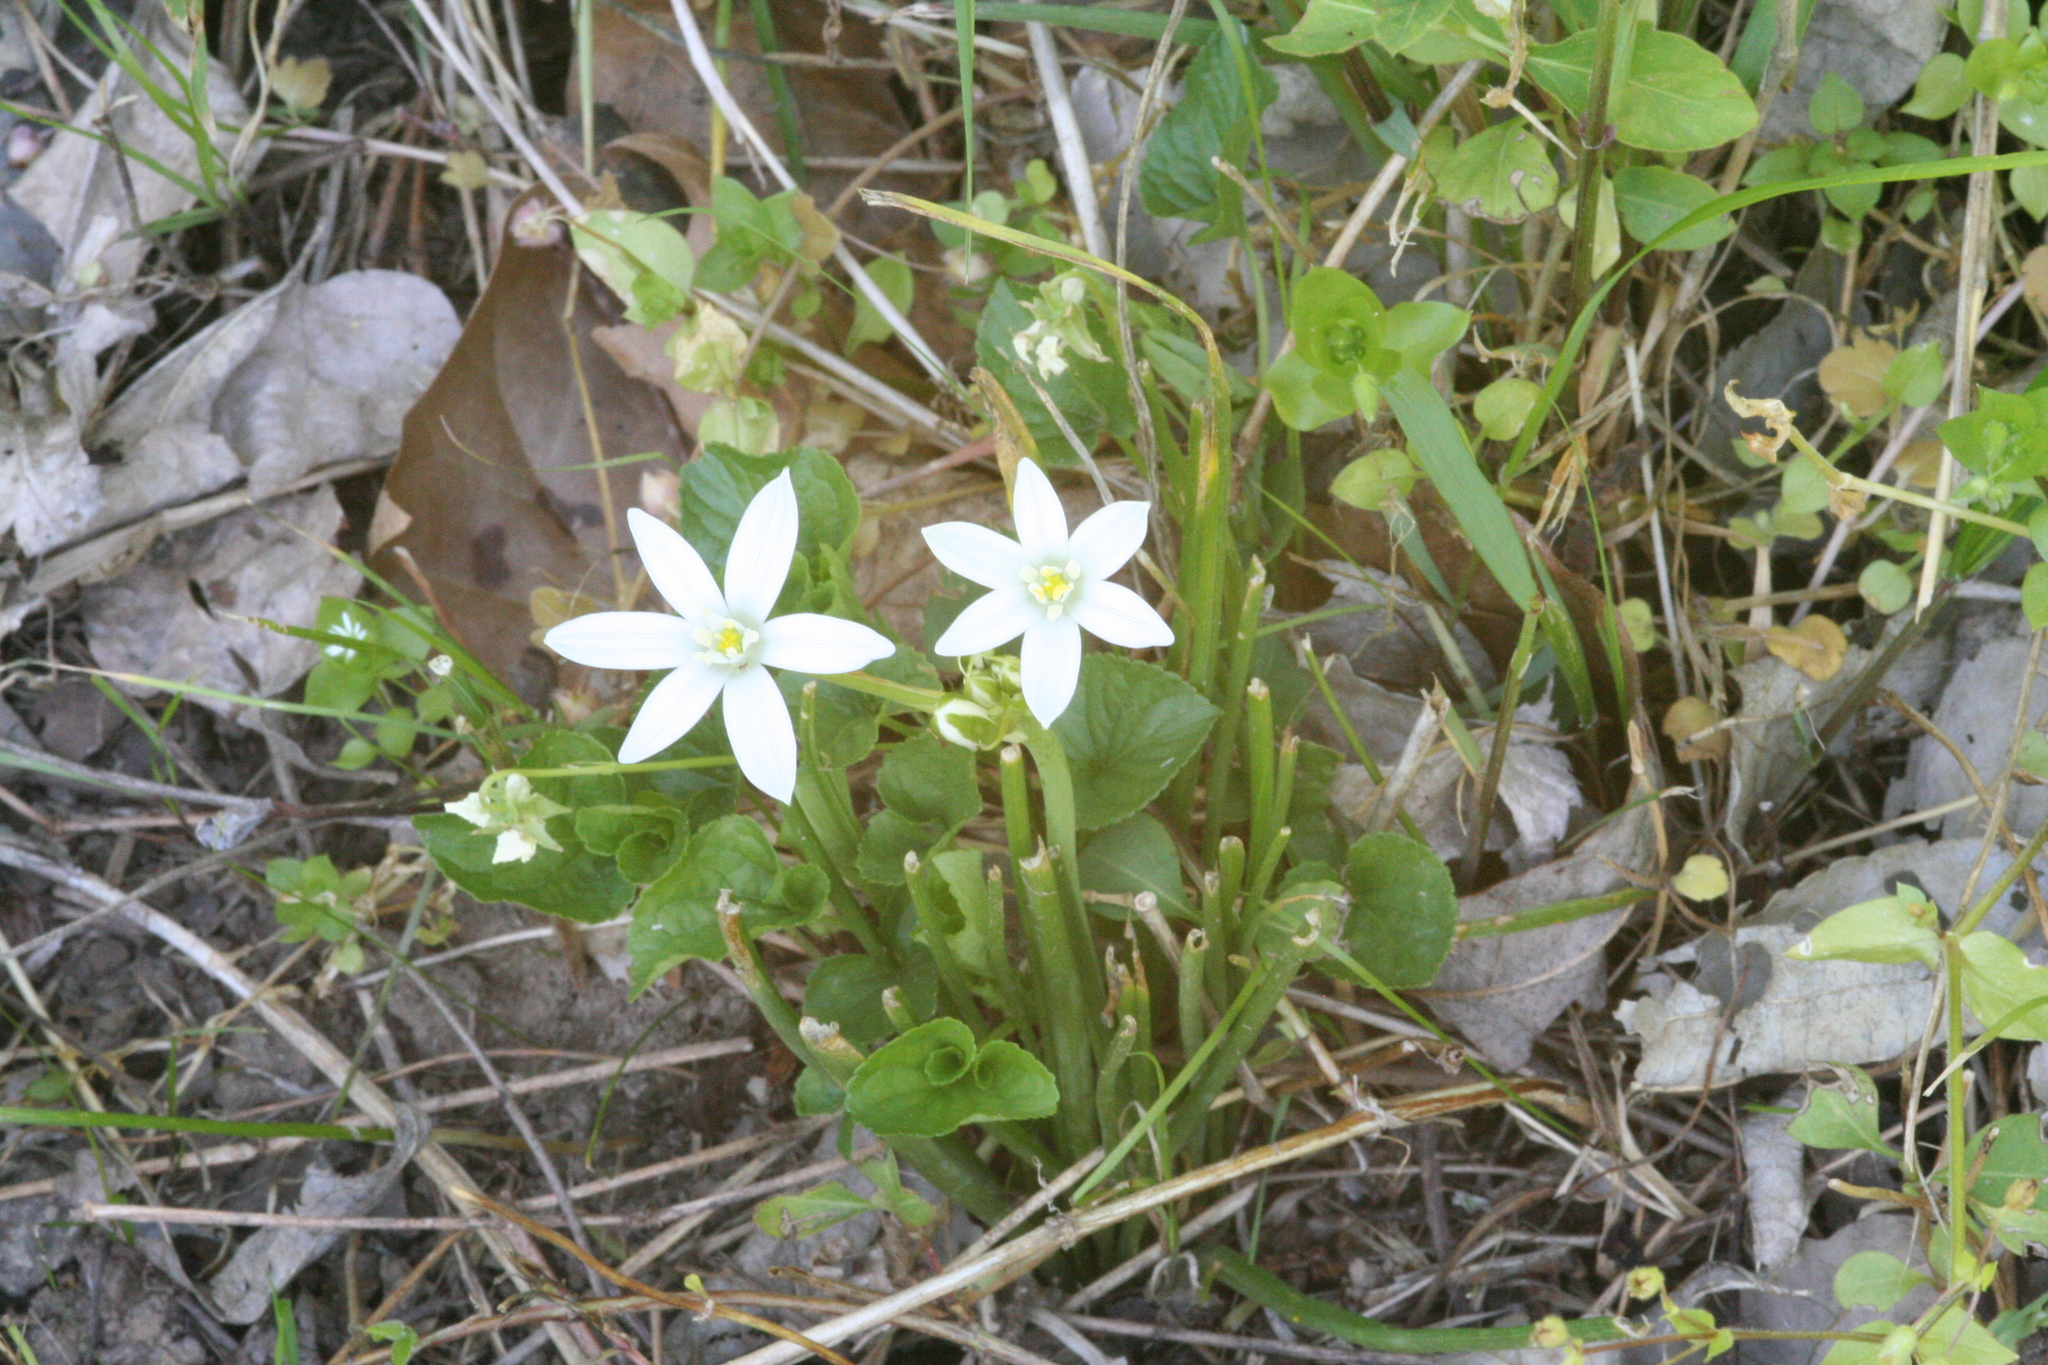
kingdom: Plantae
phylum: Tracheophyta
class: Liliopsida
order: Asparagales
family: Asparagaceae
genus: Ornithogalum
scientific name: Ornithogalum umbellatum
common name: Garden star-of-bethlehem
